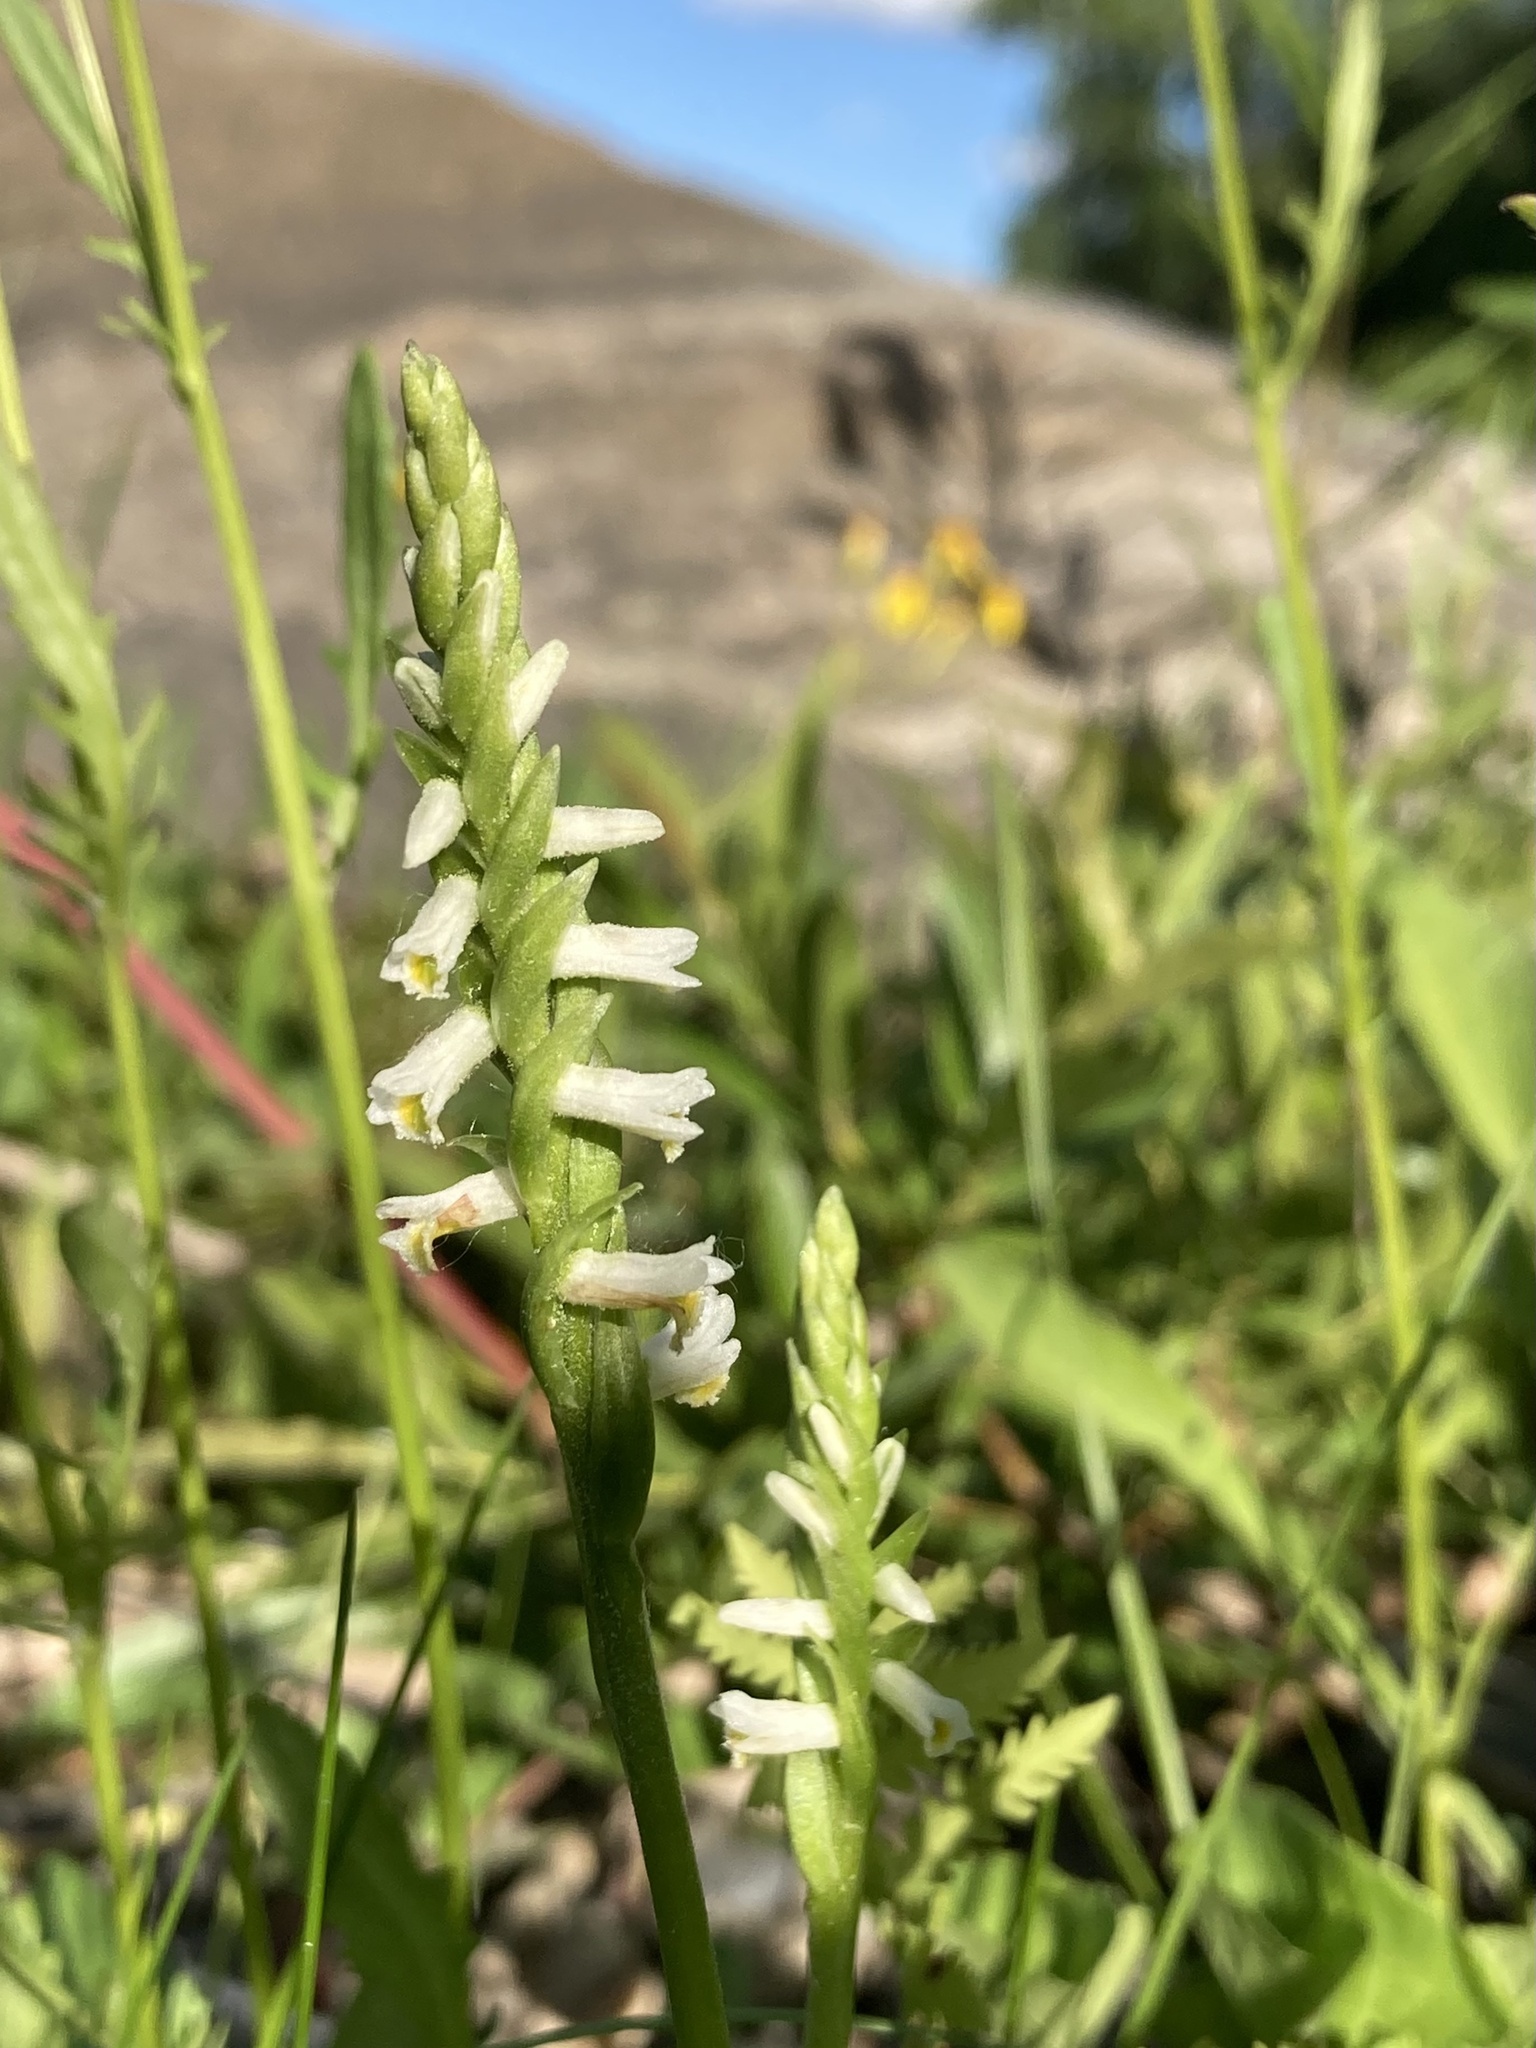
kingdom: Plantae
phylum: Tracheophyta
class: Liliopsida
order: Asparagales
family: Orchidaceae
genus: Spiranthes
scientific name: Spiranthes lucida
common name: Broad-leaved ladies'-tresses
